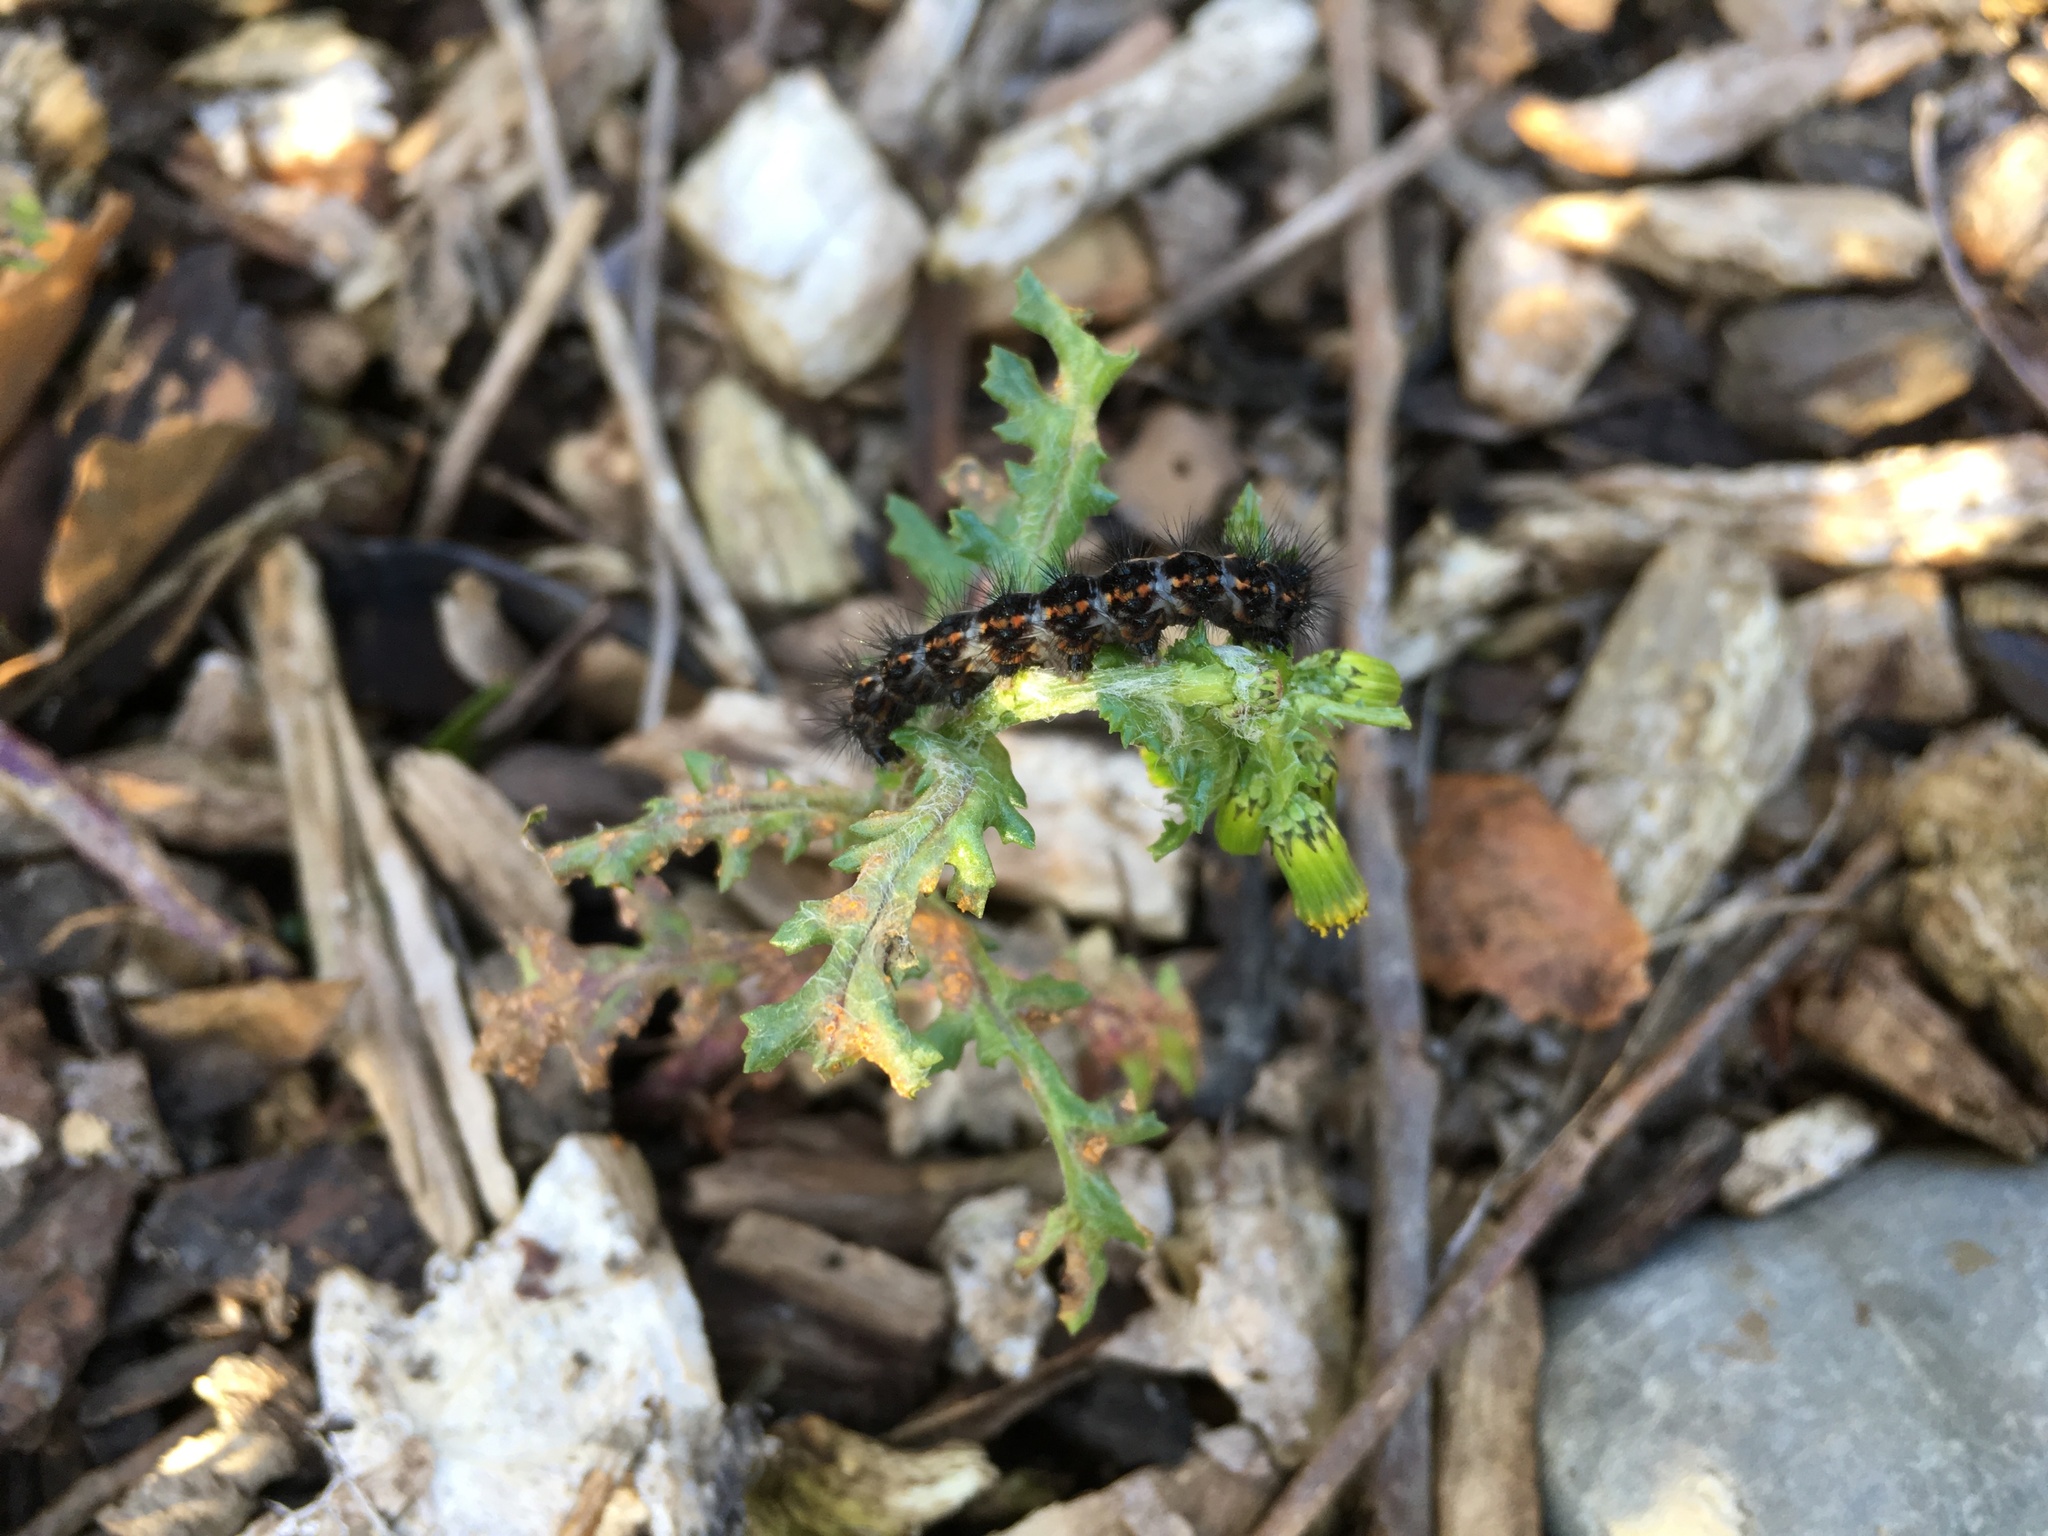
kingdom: Animalia
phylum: Arthropoda
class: Insecta
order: Lepidoptera
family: Erebidae
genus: Nyctemera
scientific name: Nyctemera annulatum
